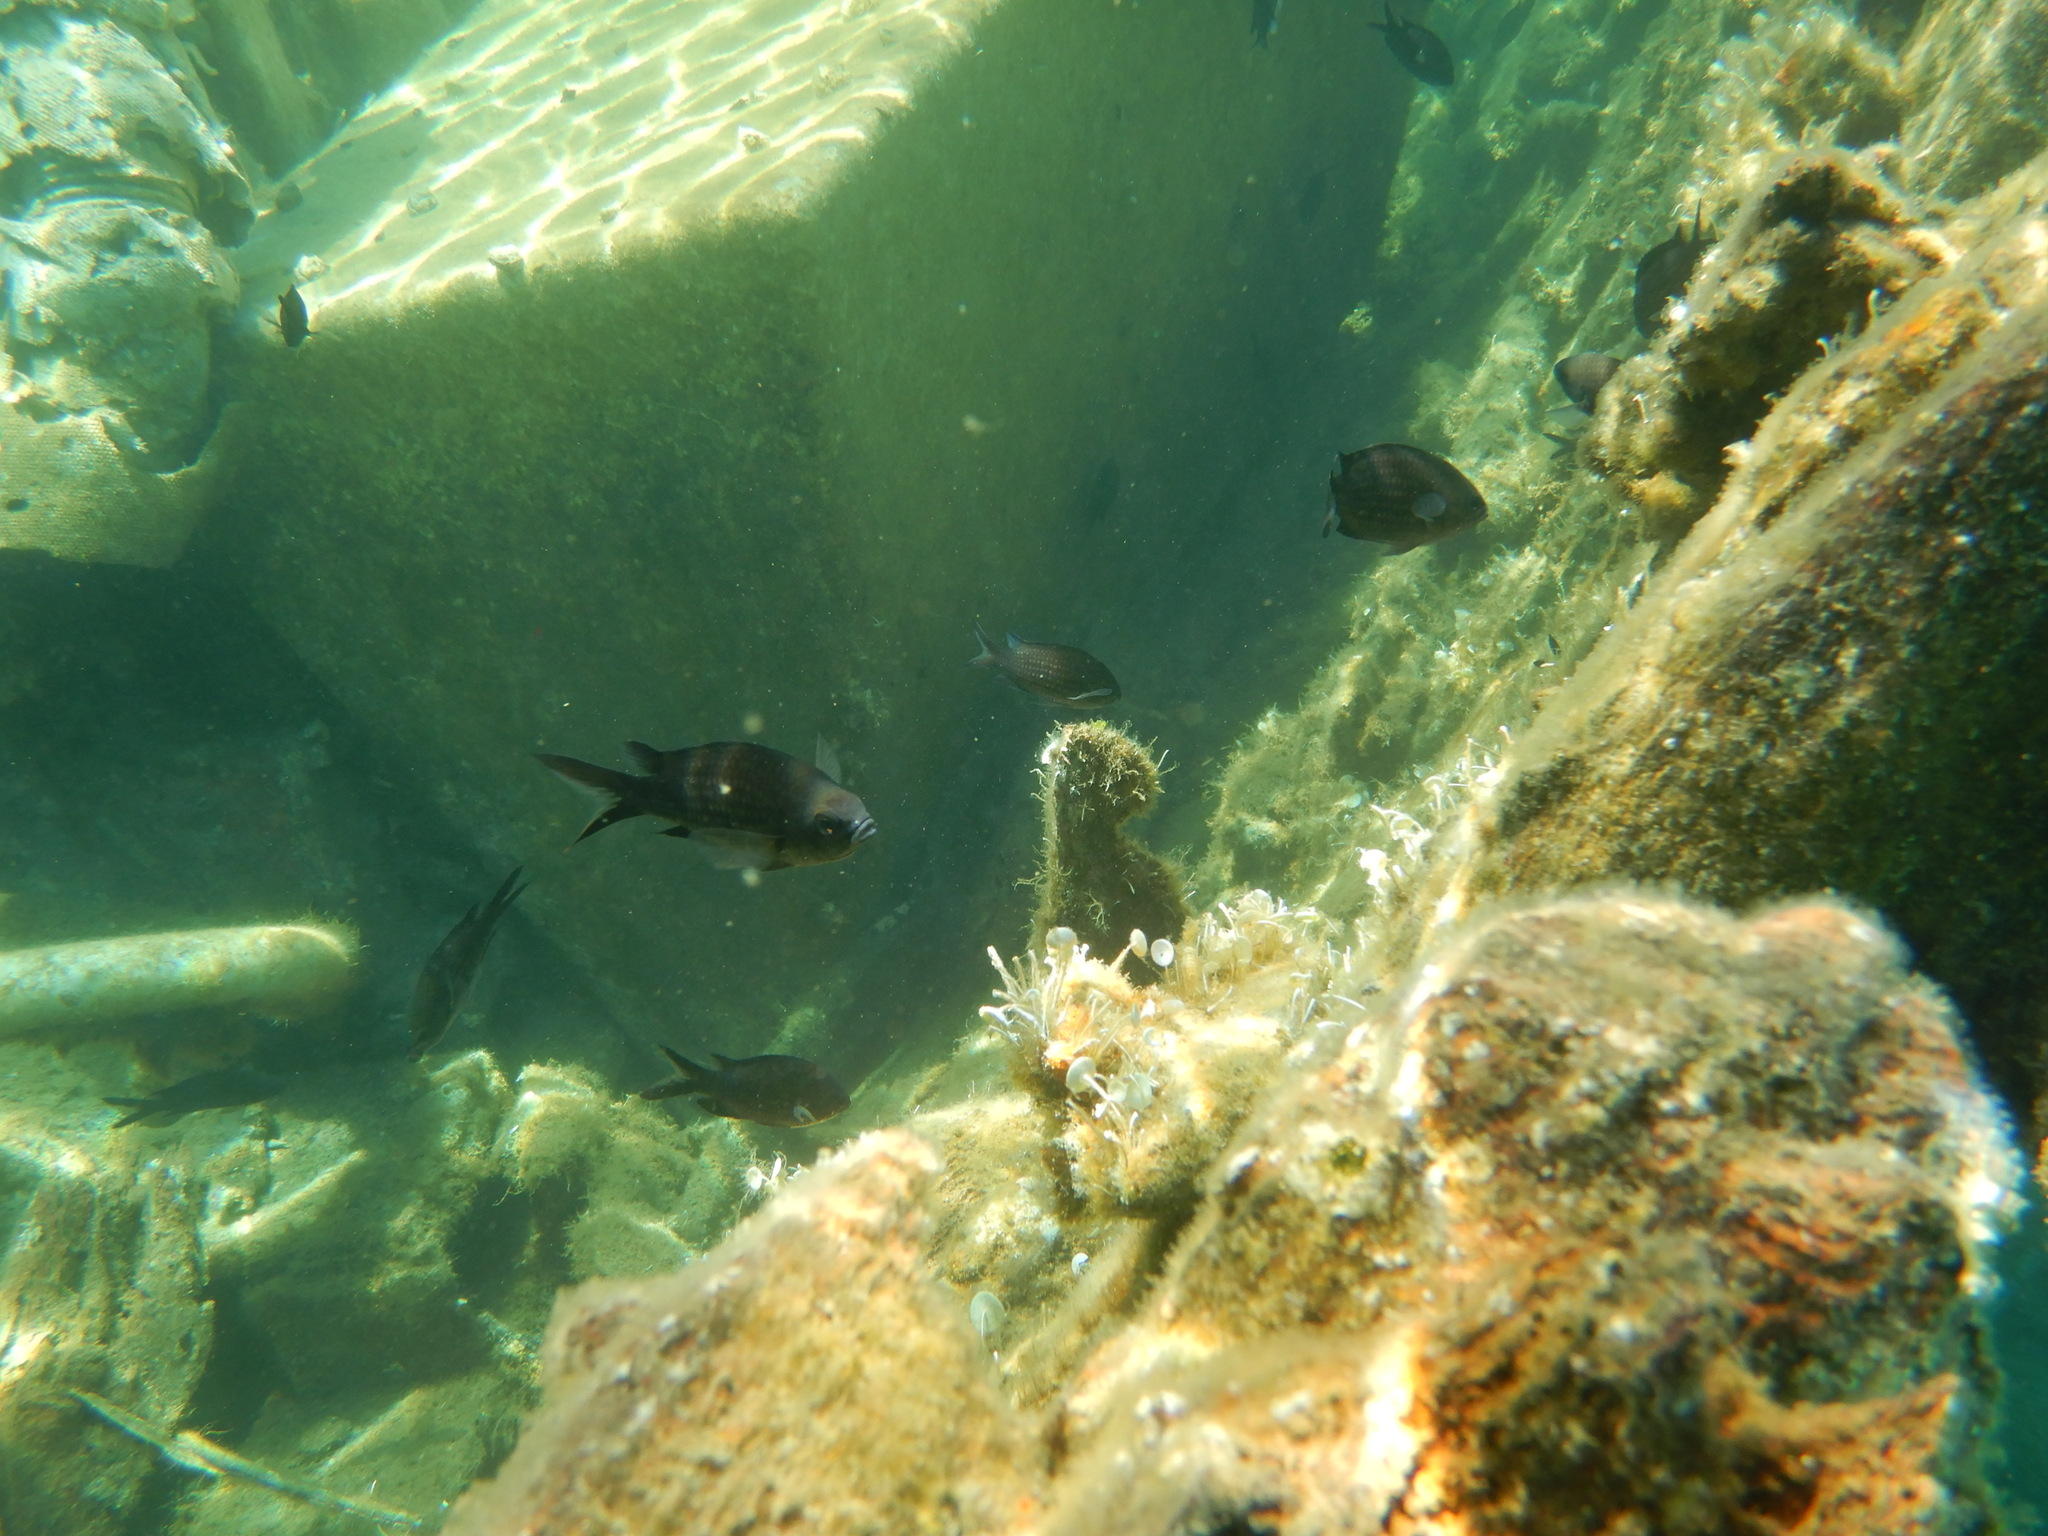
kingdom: Animalia
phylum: Chordata
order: Perciformes
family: Pomacentridae
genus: Chromis
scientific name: Chromis chromis
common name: Damselfish
